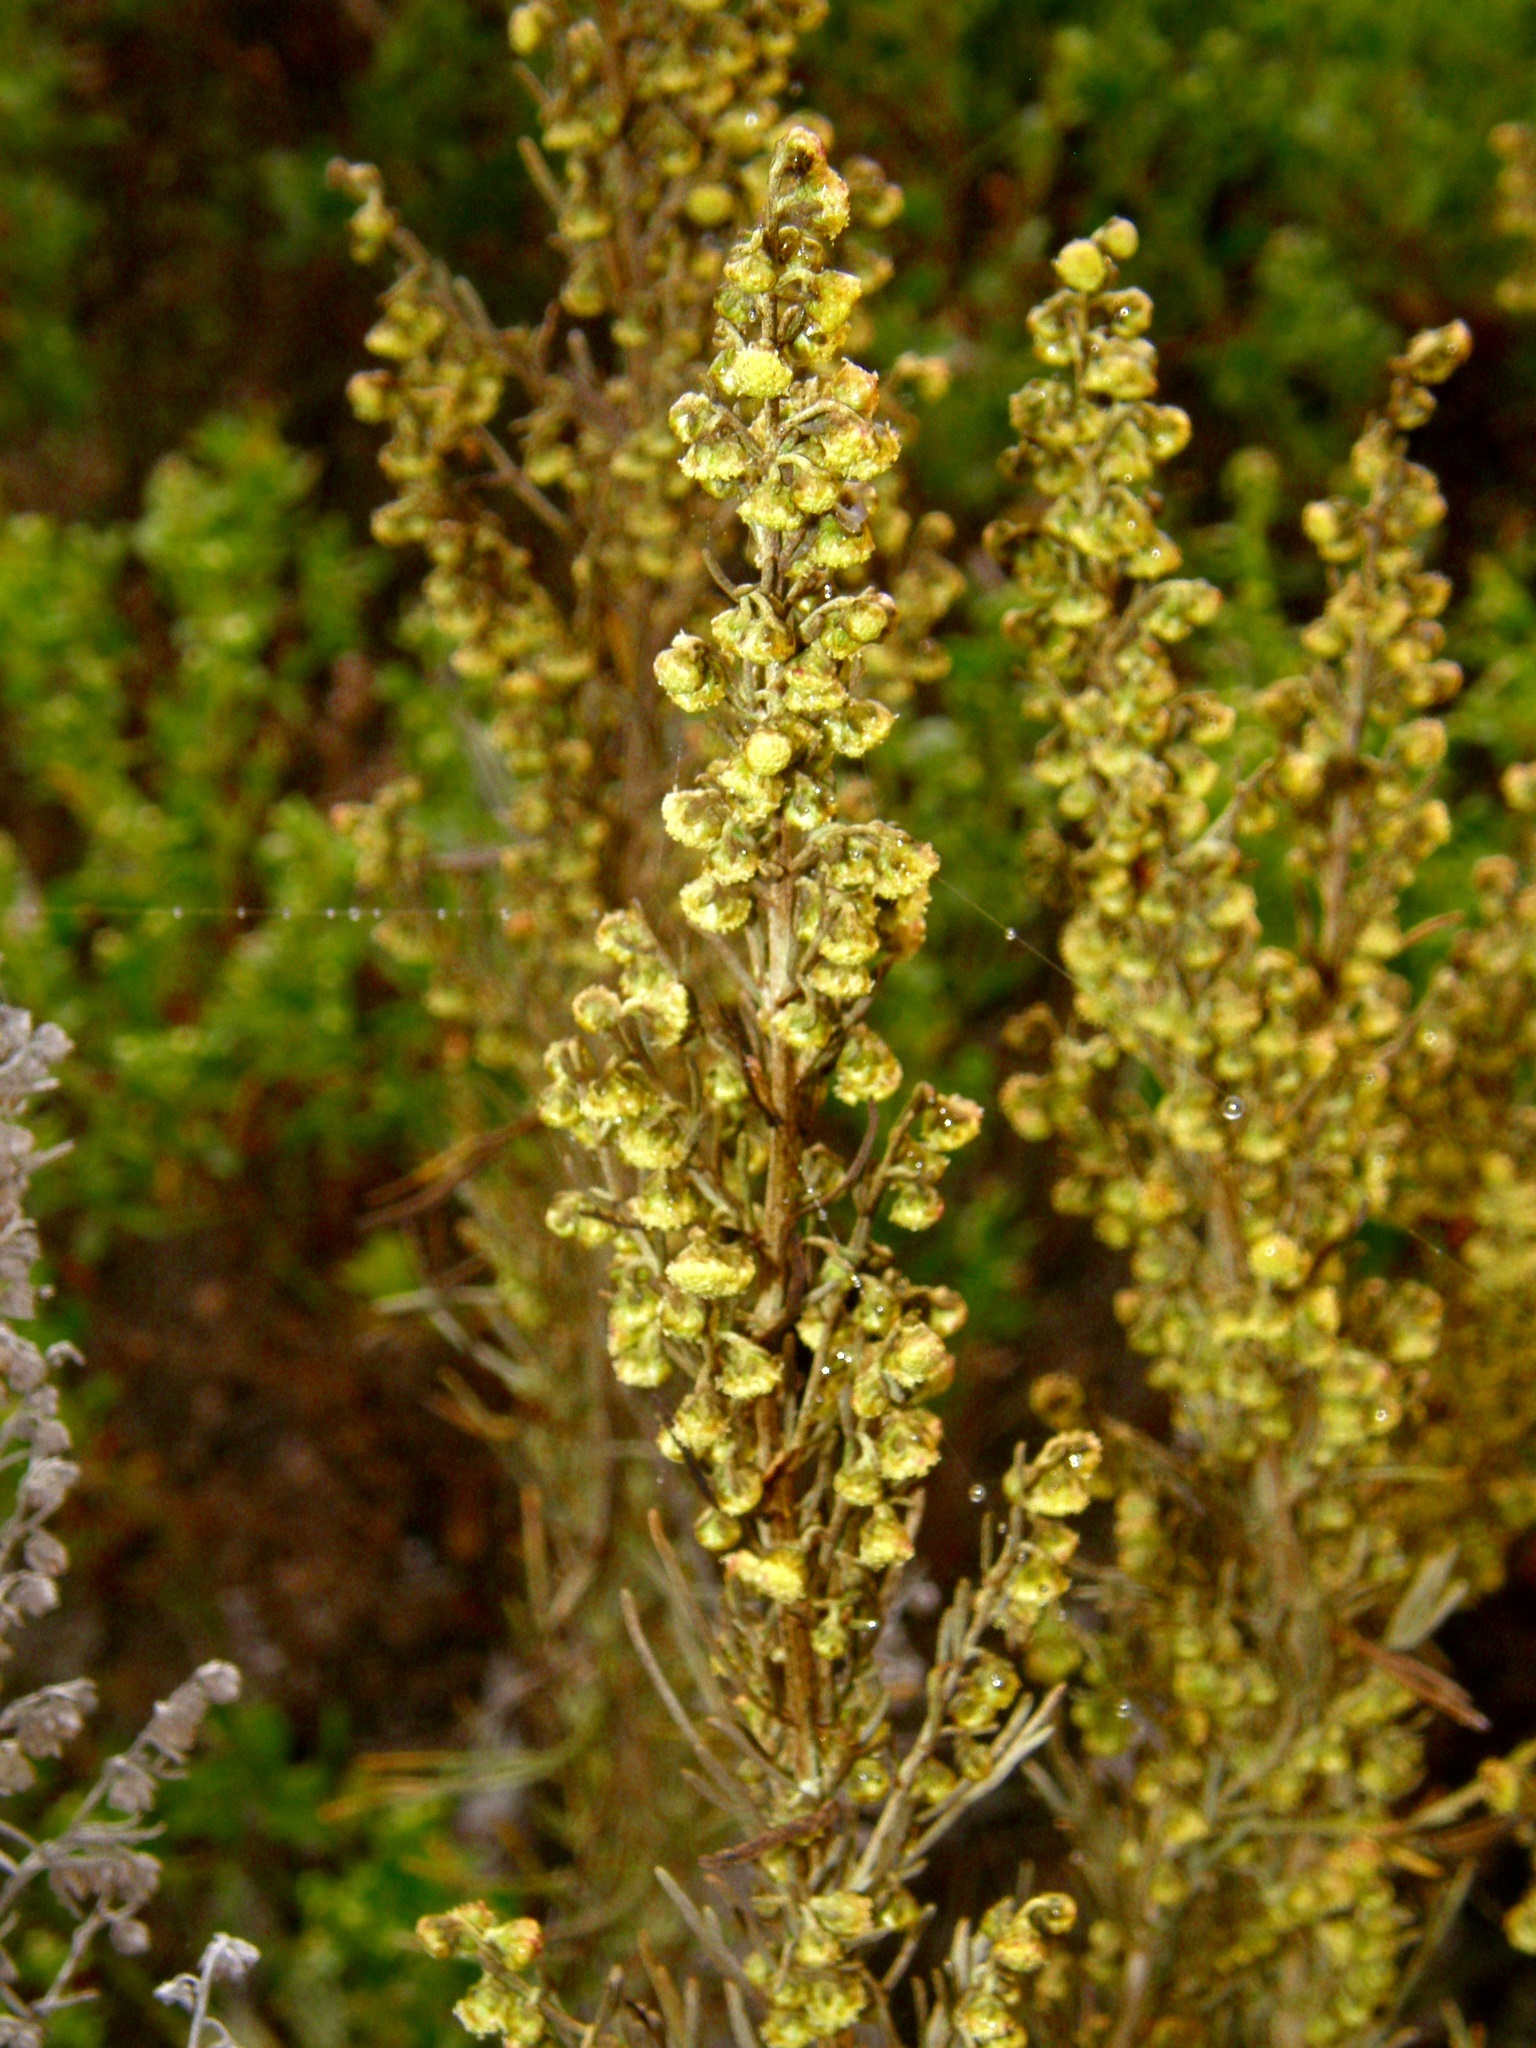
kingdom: Plantae
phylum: Tracheophyta
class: Magnoliopsida
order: Asterales
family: Asteraceae
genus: Artemisia
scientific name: Artemisia californica
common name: California sagebrush
